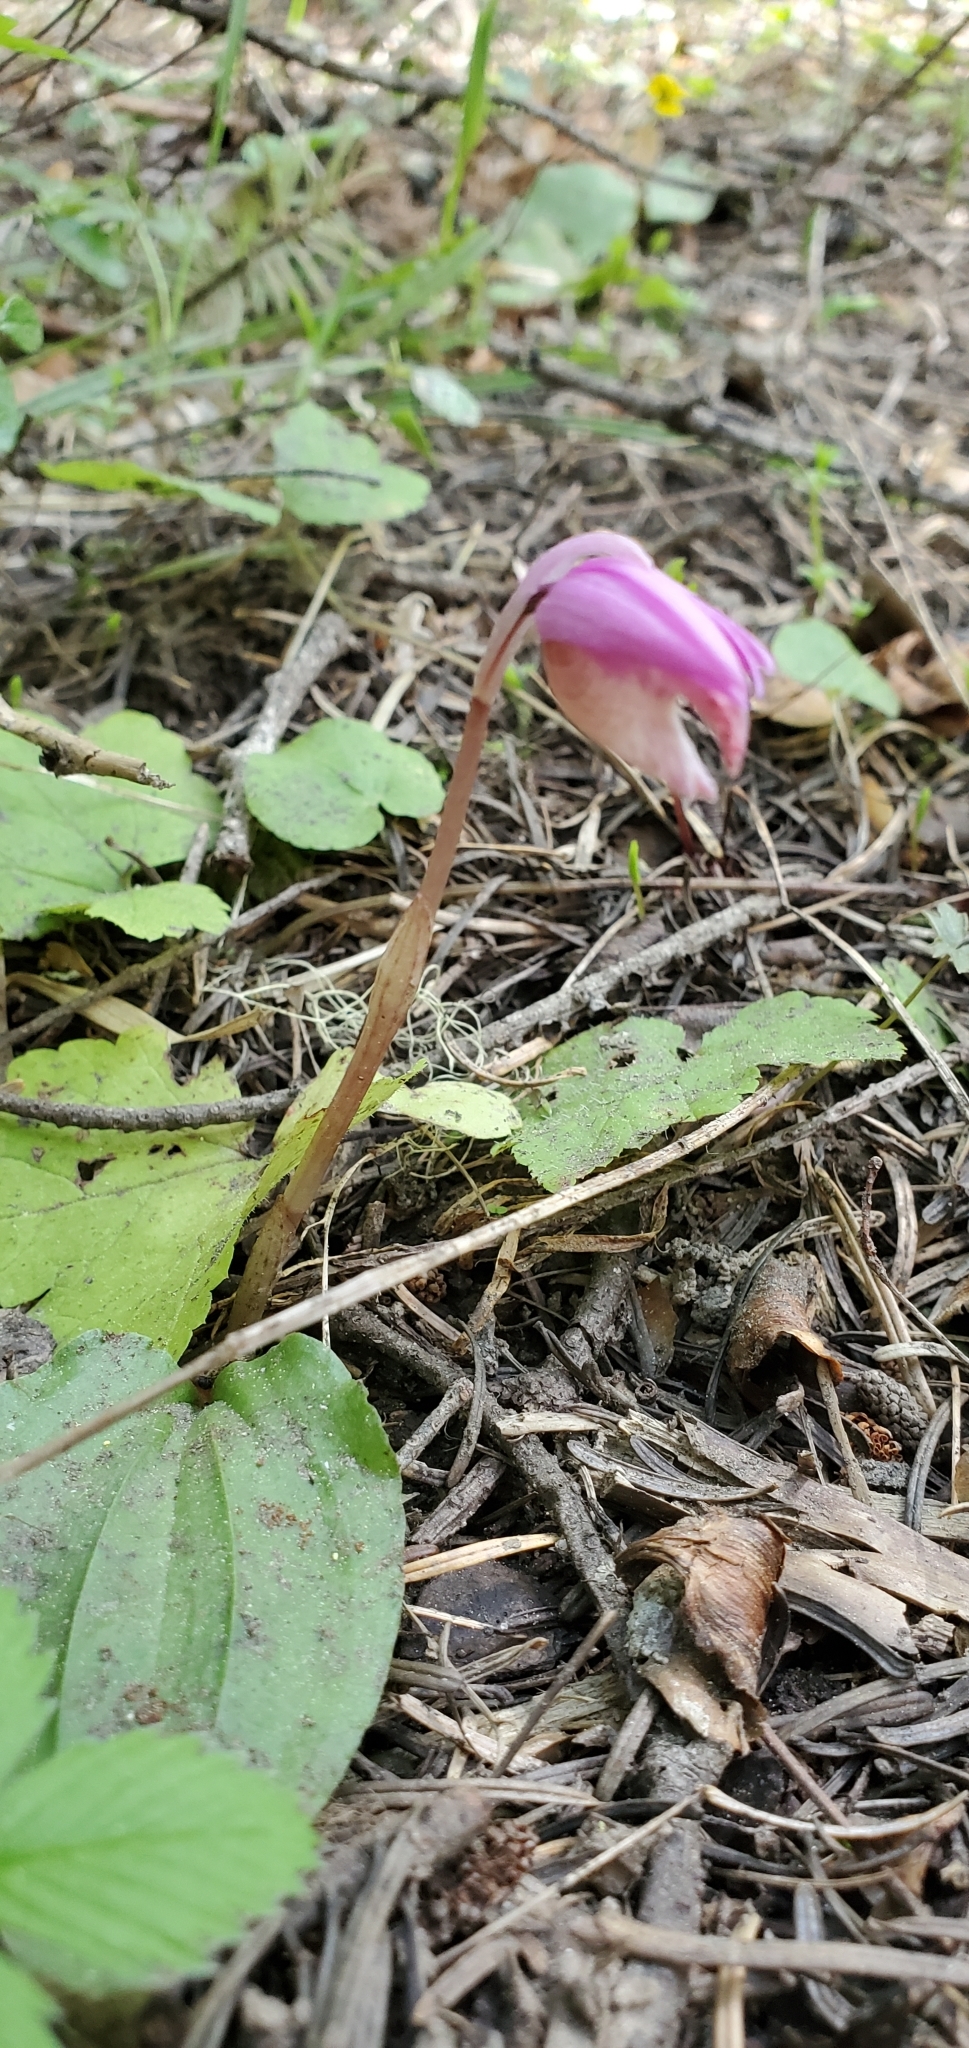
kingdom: Plantae
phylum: Tracheophyta
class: Liliopsida
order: Asparagales
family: Orchidaceae
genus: Calypso
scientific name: Calypso bulbosa
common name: Calypso
